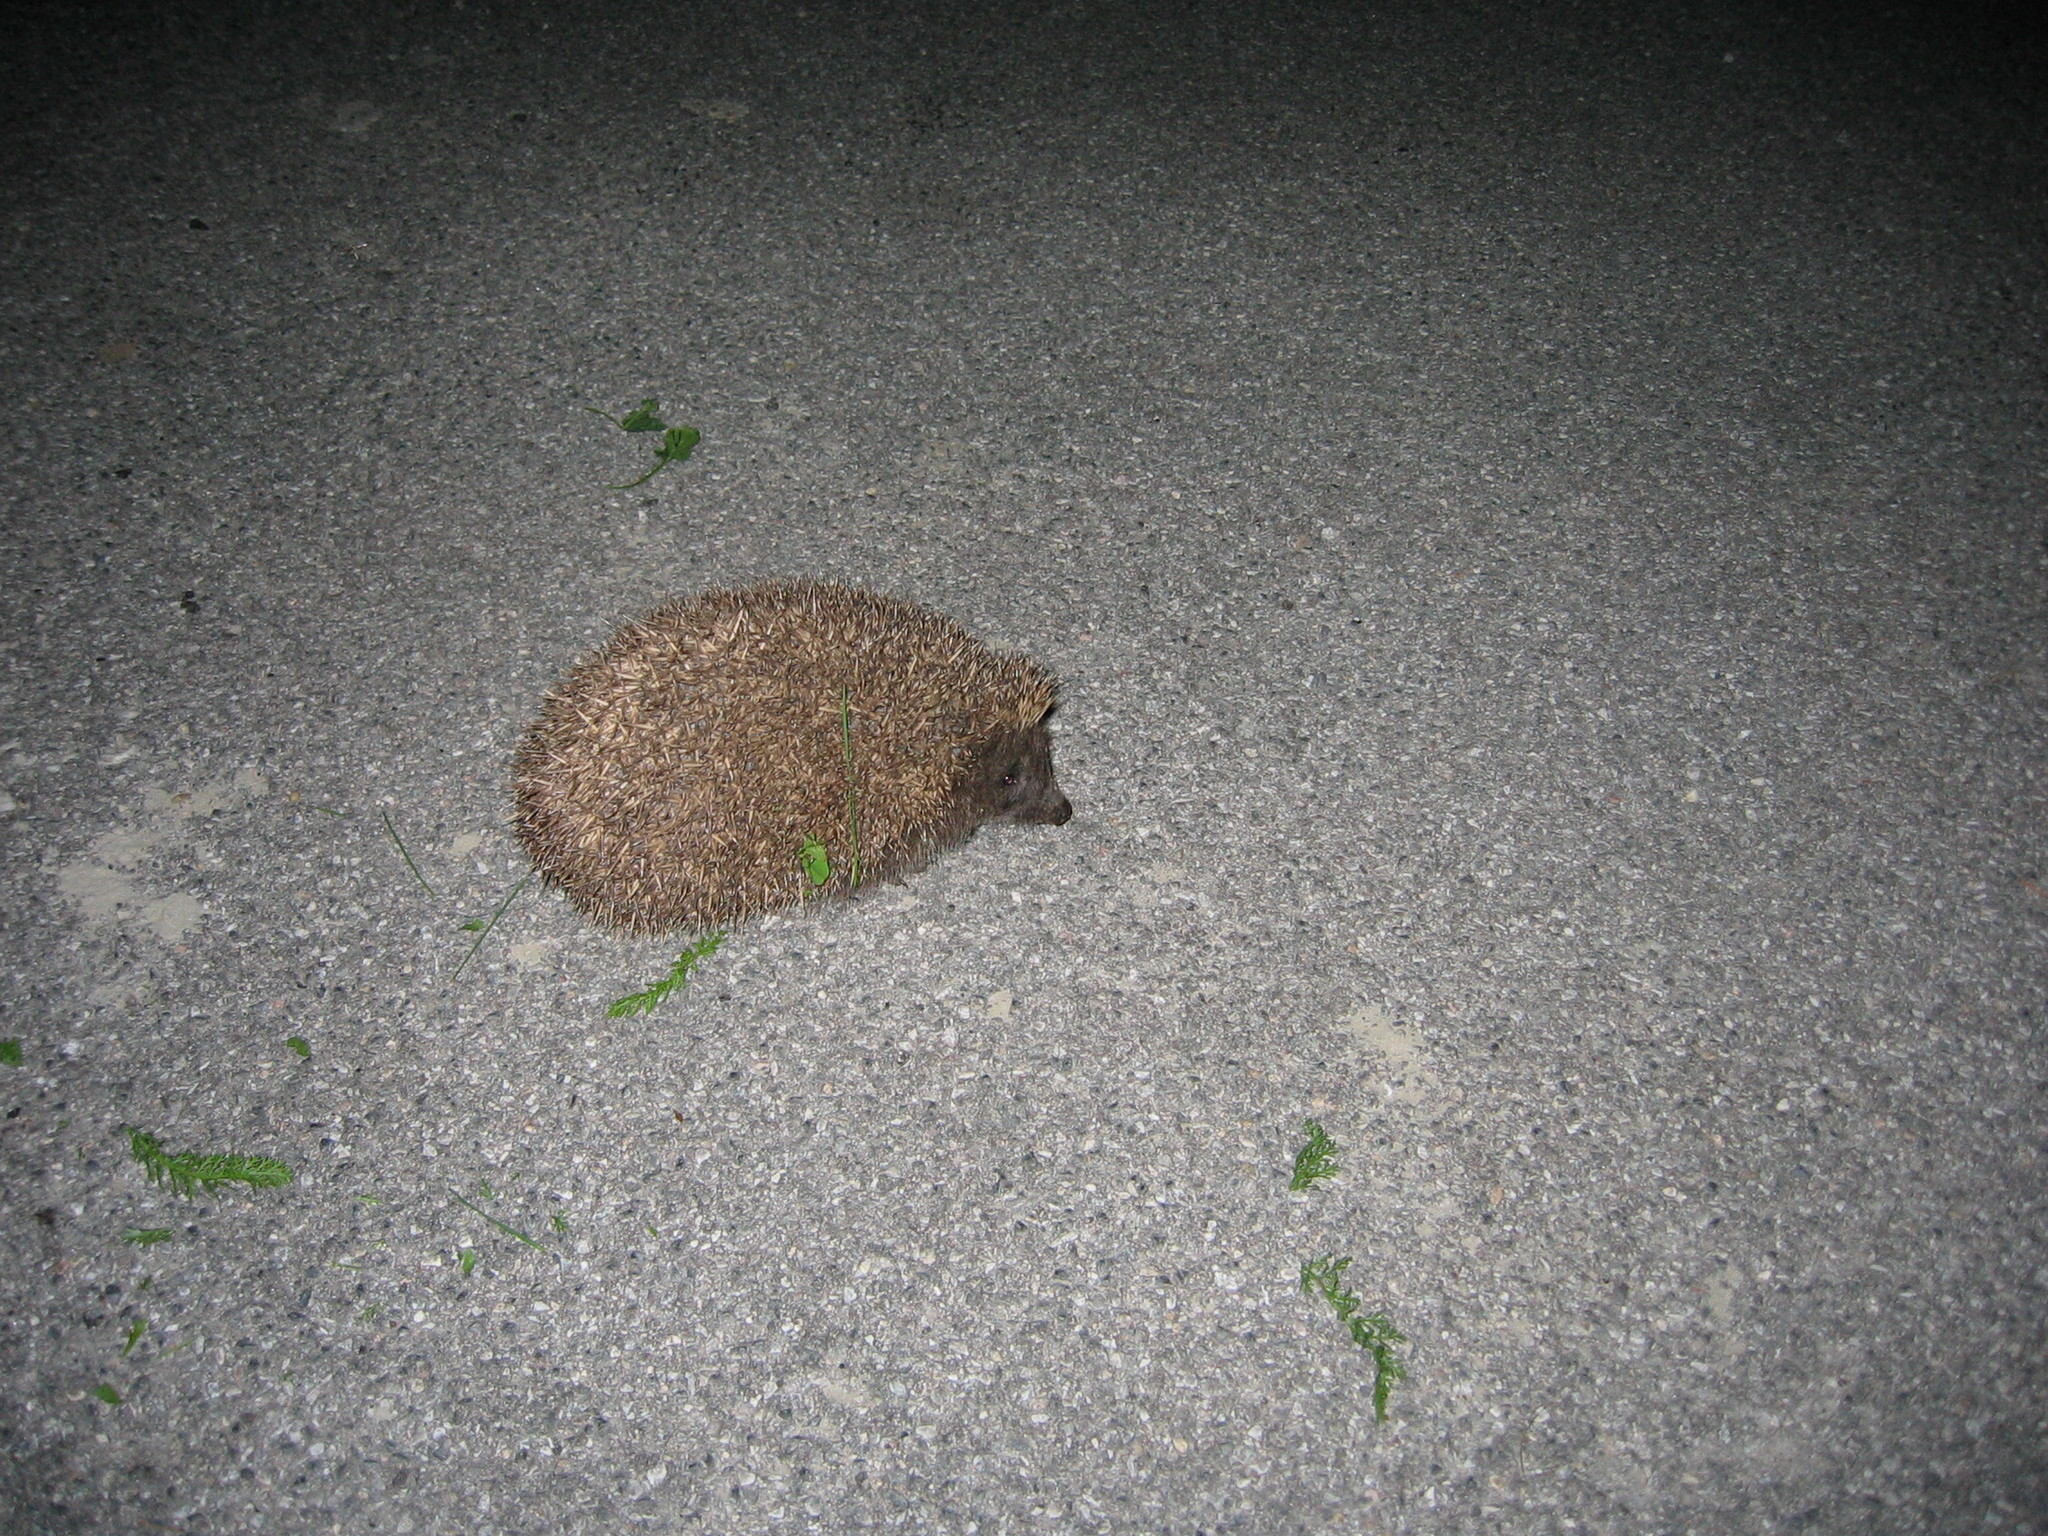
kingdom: Animalia
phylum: Chordata
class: Mammalia
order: Erinaceomorpha
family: Erinaceidae
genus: Erinaceus
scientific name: Erinaceus roumanicus
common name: Northern white-breasted hedgehog
